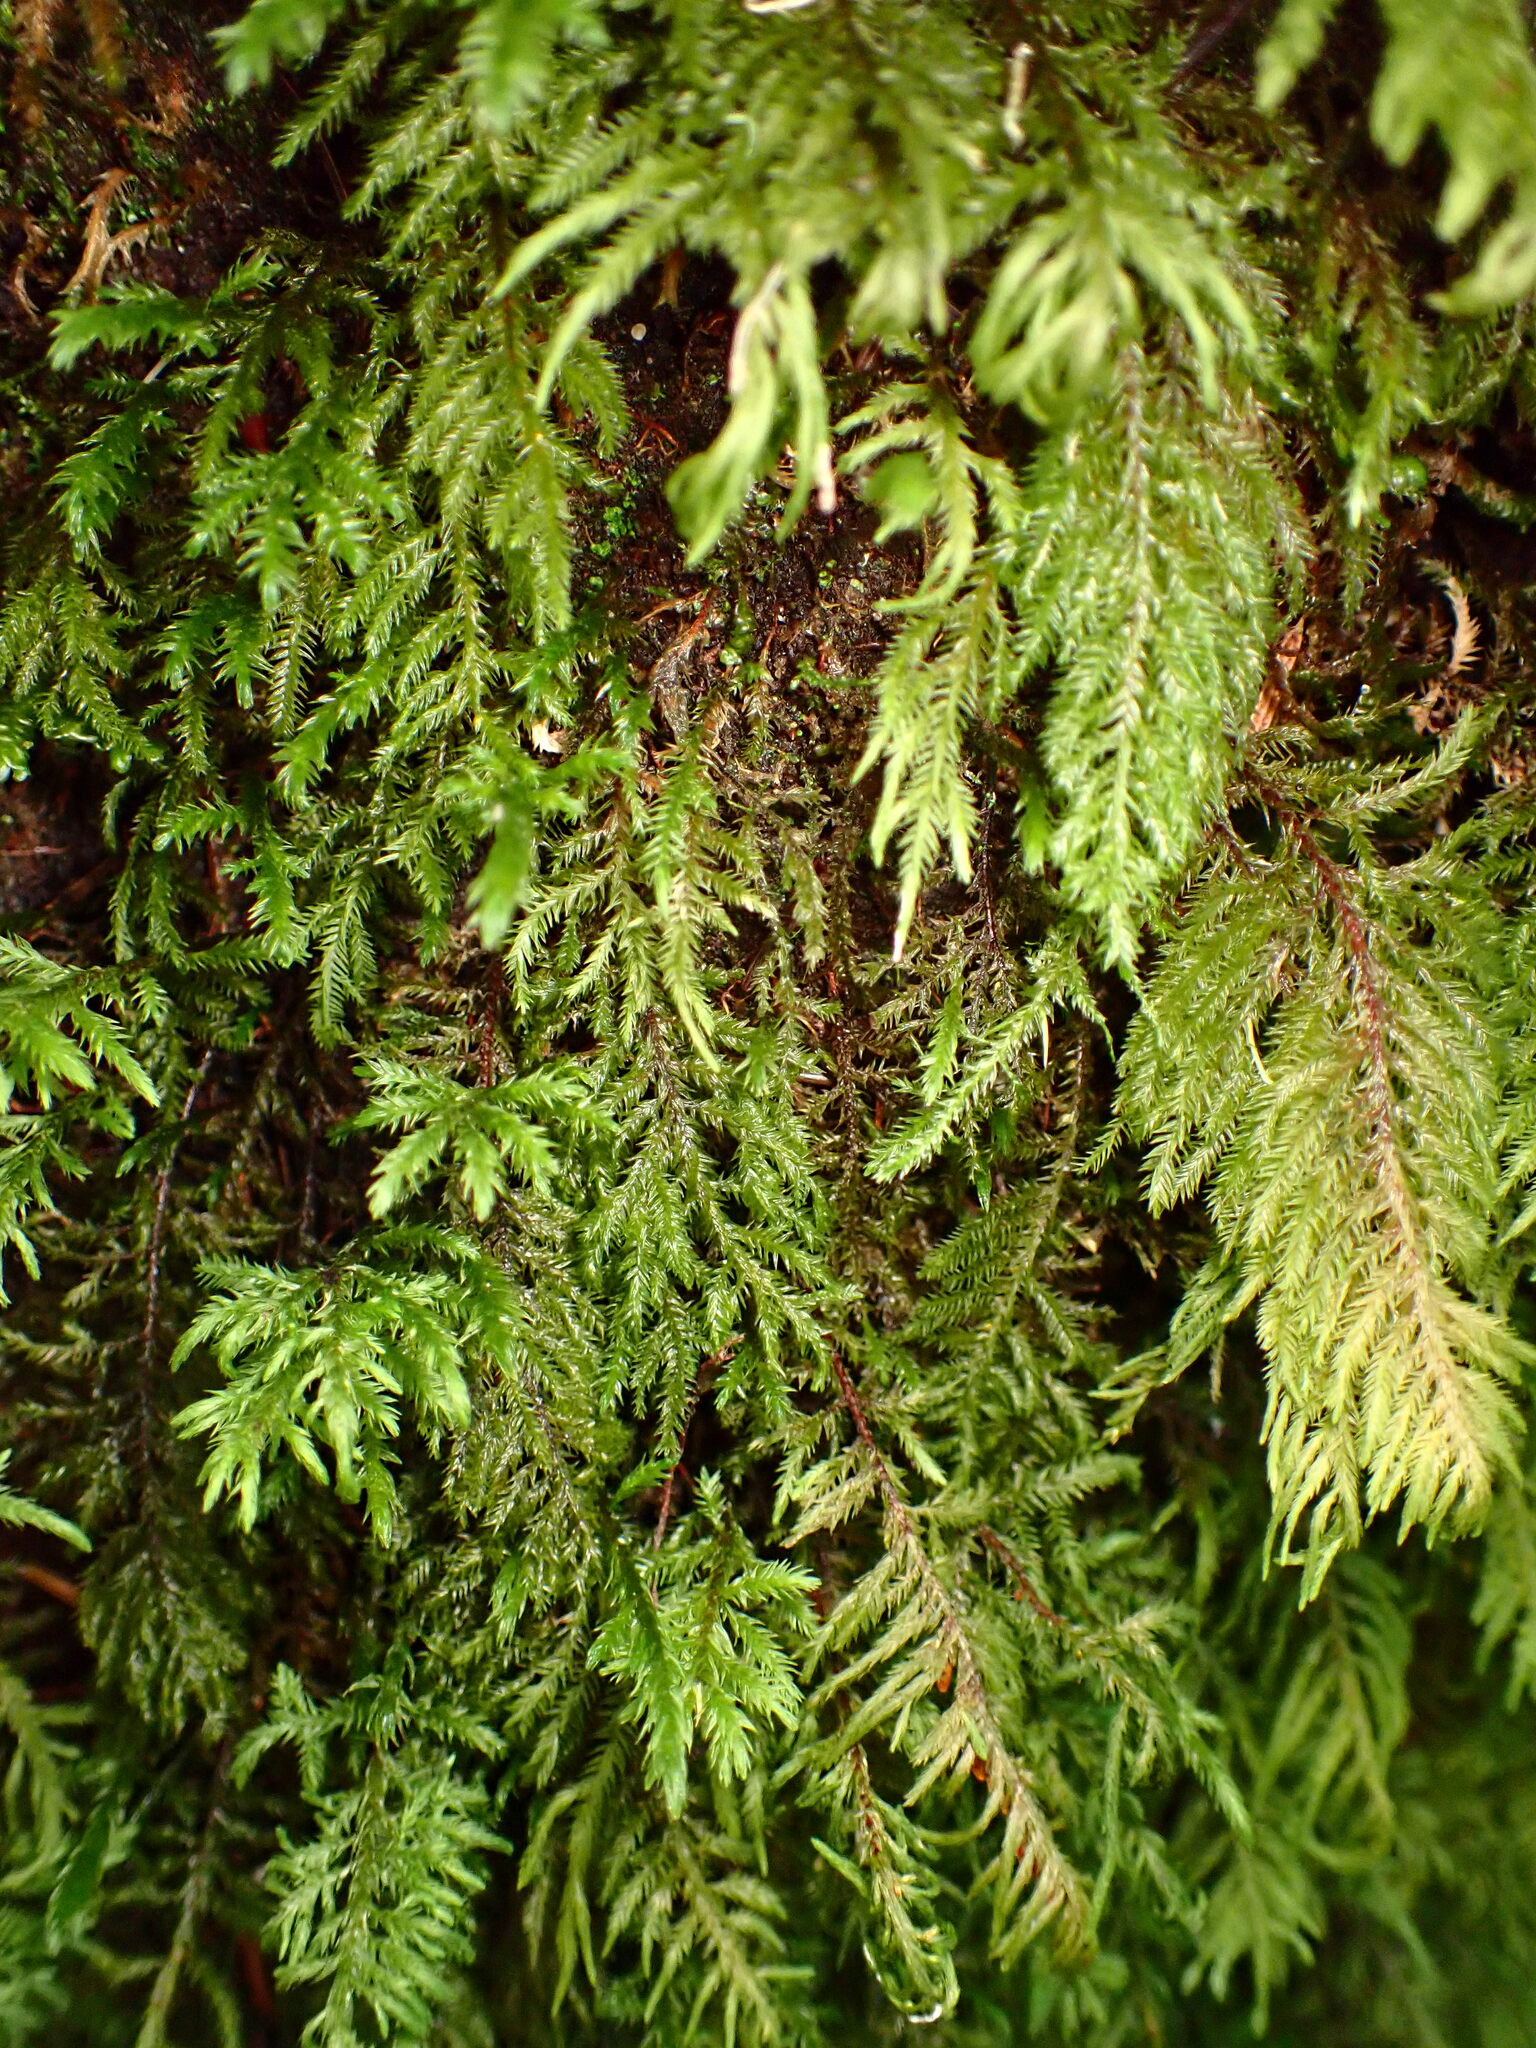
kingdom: Plantae
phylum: Bryophyta
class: Bryopsida
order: Hypnales
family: Cryphaeaceae
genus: Dendroalsia
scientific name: Dendroalsia abietina
